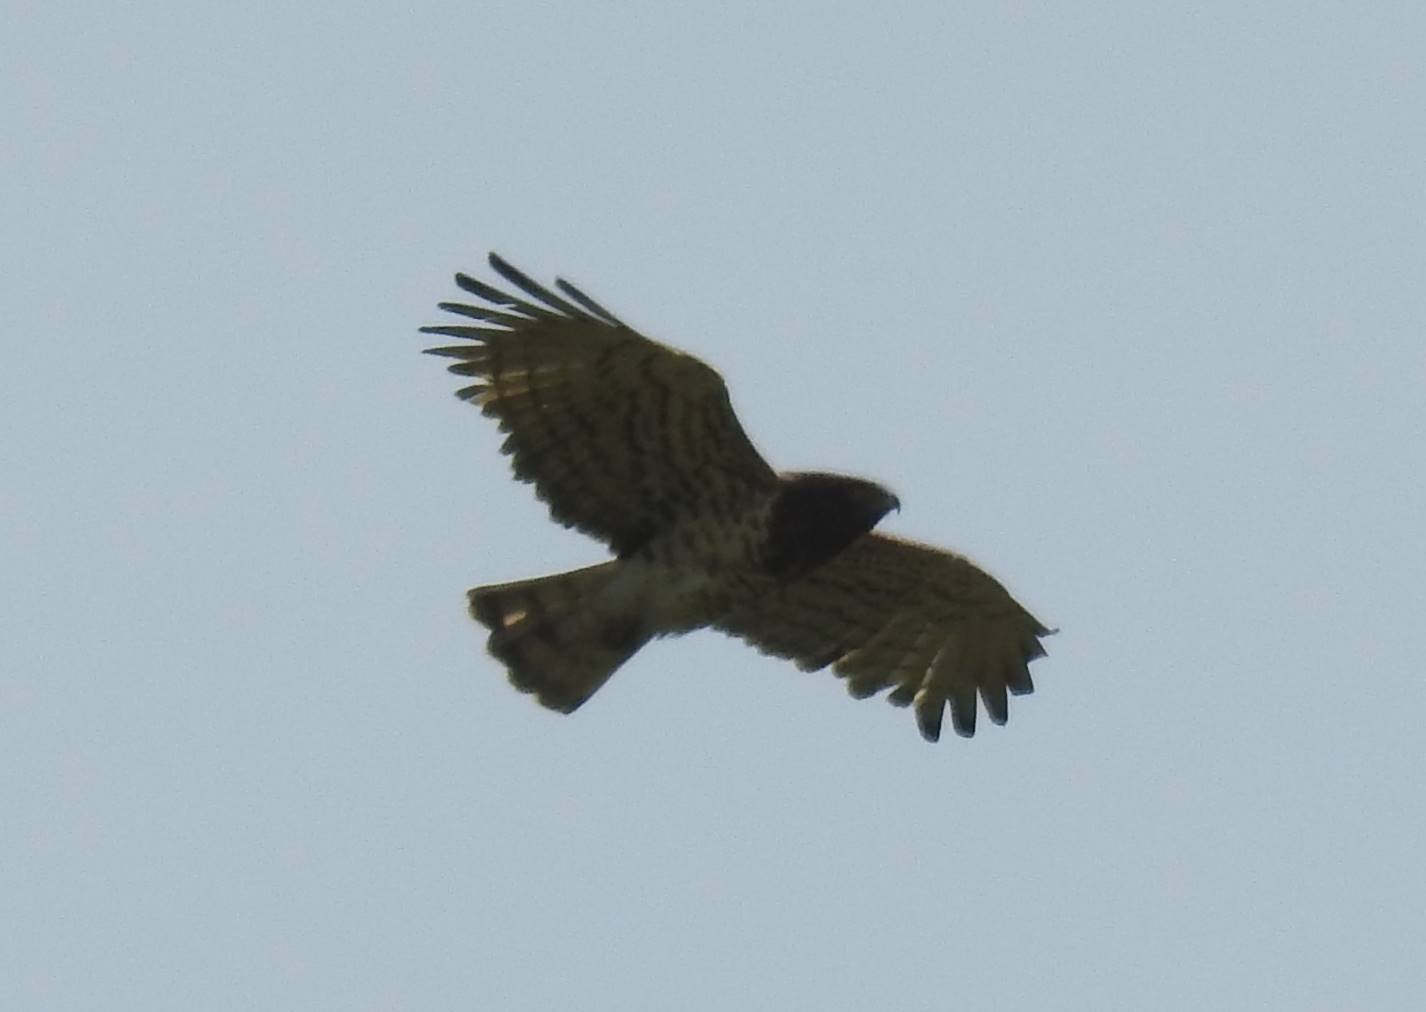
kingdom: Animalia
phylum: Chordata
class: Aves
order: Accipitriformes
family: Accipitridae
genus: Circaetus
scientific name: Circaetus gallicus
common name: Short-toed snake eagle
